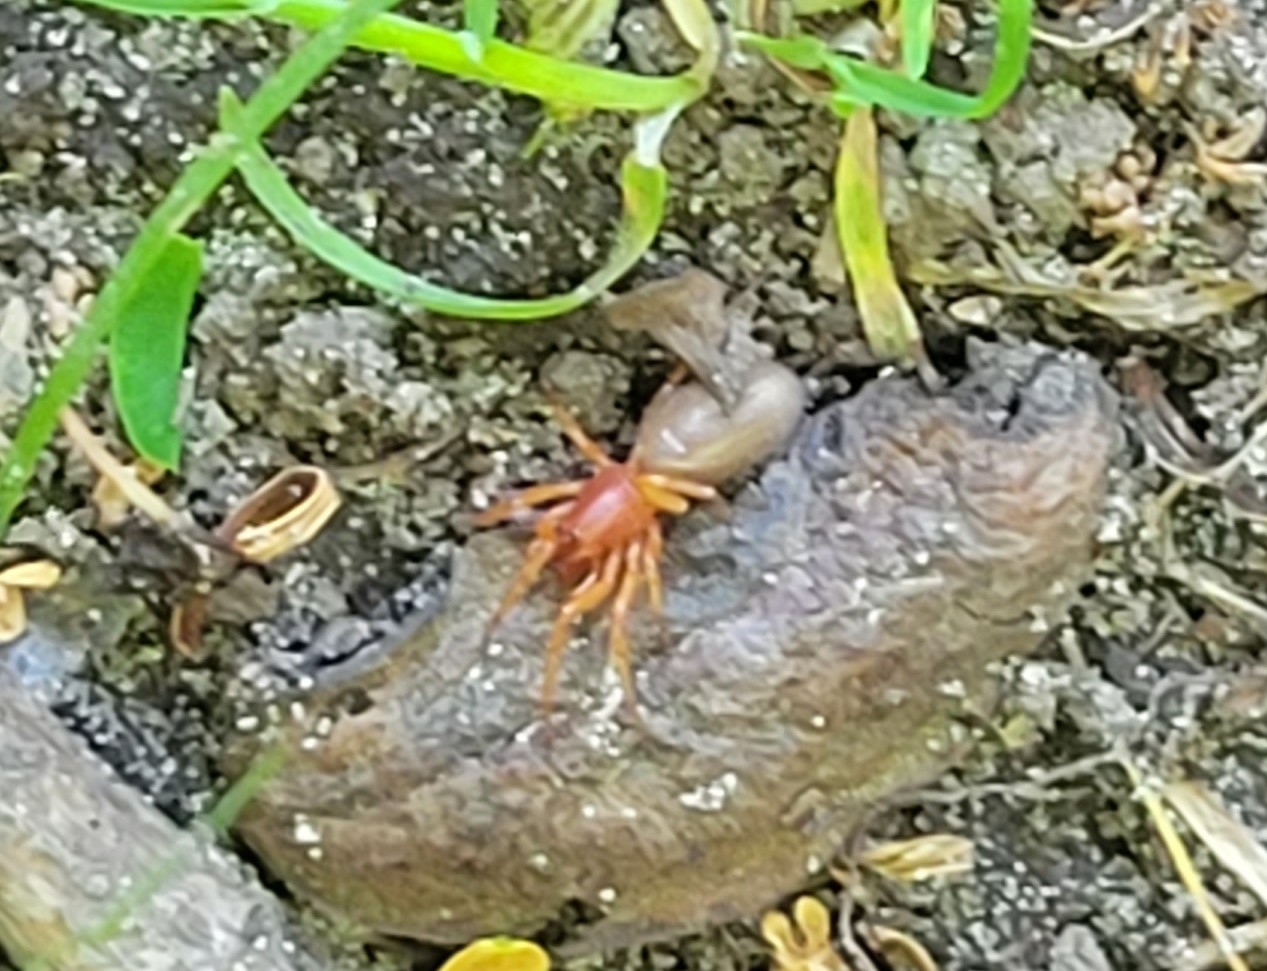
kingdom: Animalia
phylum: Arthropoda
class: Arachnida
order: Araneae
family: Dysderidae
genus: Dysdera
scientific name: Dysdera crocata
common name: Woodlouse spider
